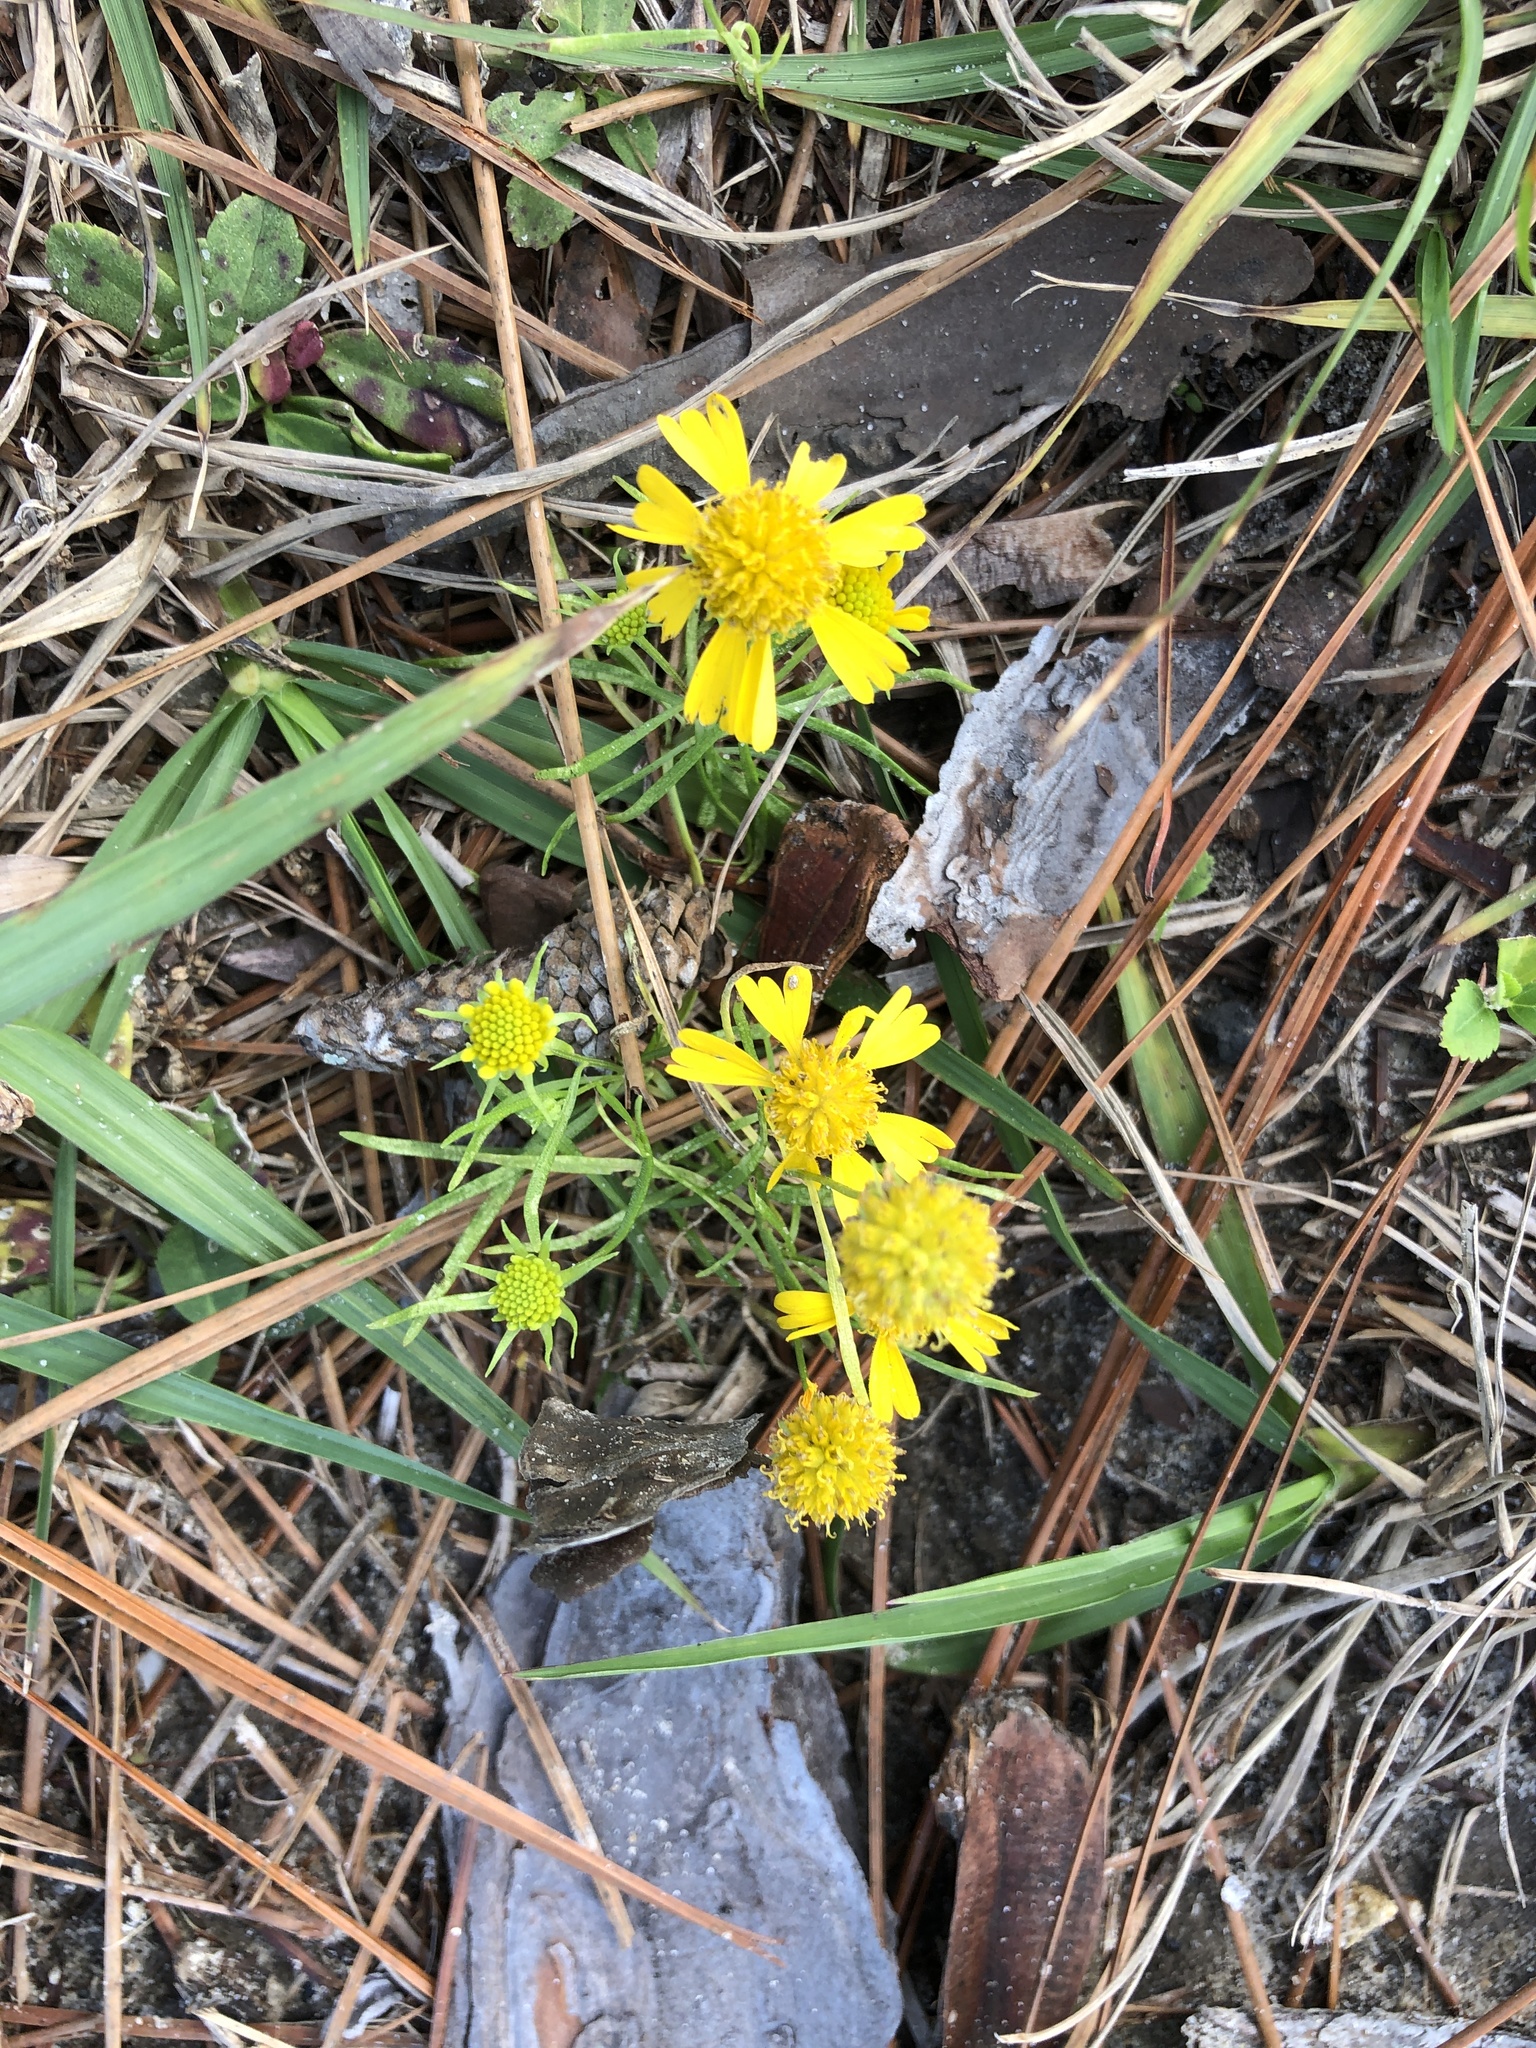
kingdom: Plantae
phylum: Tracheophyta
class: Magnoliopsida
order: Asterales
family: Asteraceae
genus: Helenium
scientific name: Helenium amarum
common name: Bitter sneezeweed
